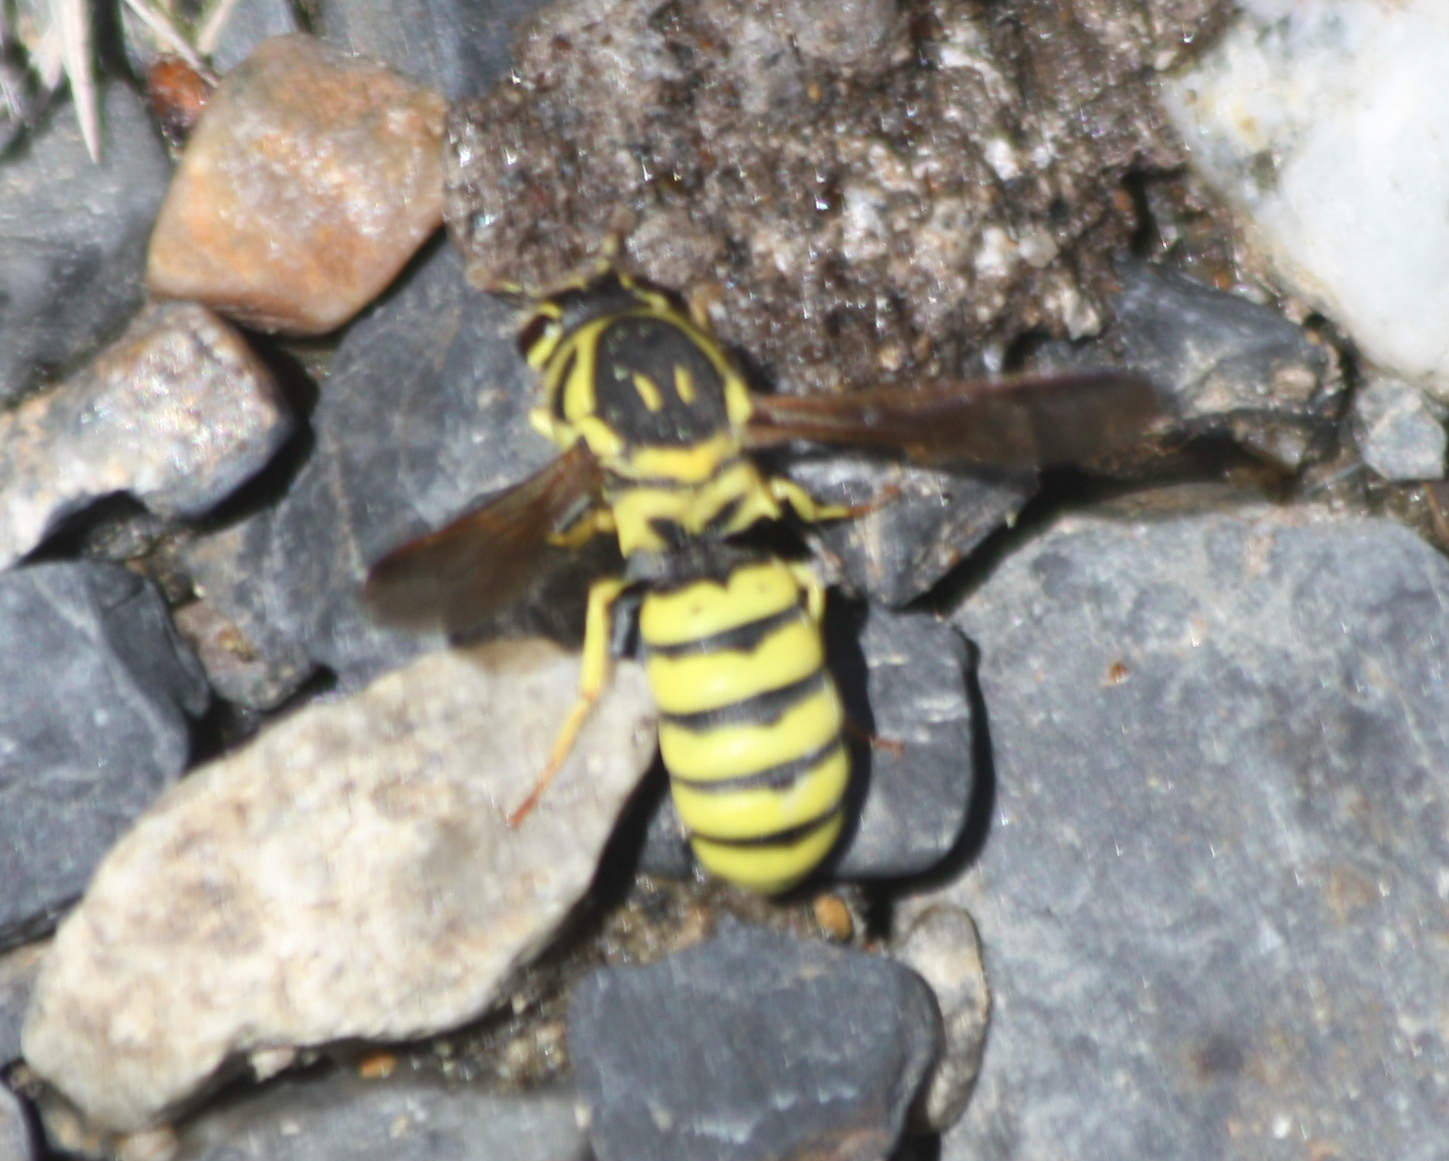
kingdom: Animalia
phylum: Arthropoda
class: Insecta
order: Hymenoptera
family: Masaridae
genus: Pseudomasaris
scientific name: Pseudomasaris edwardsi
